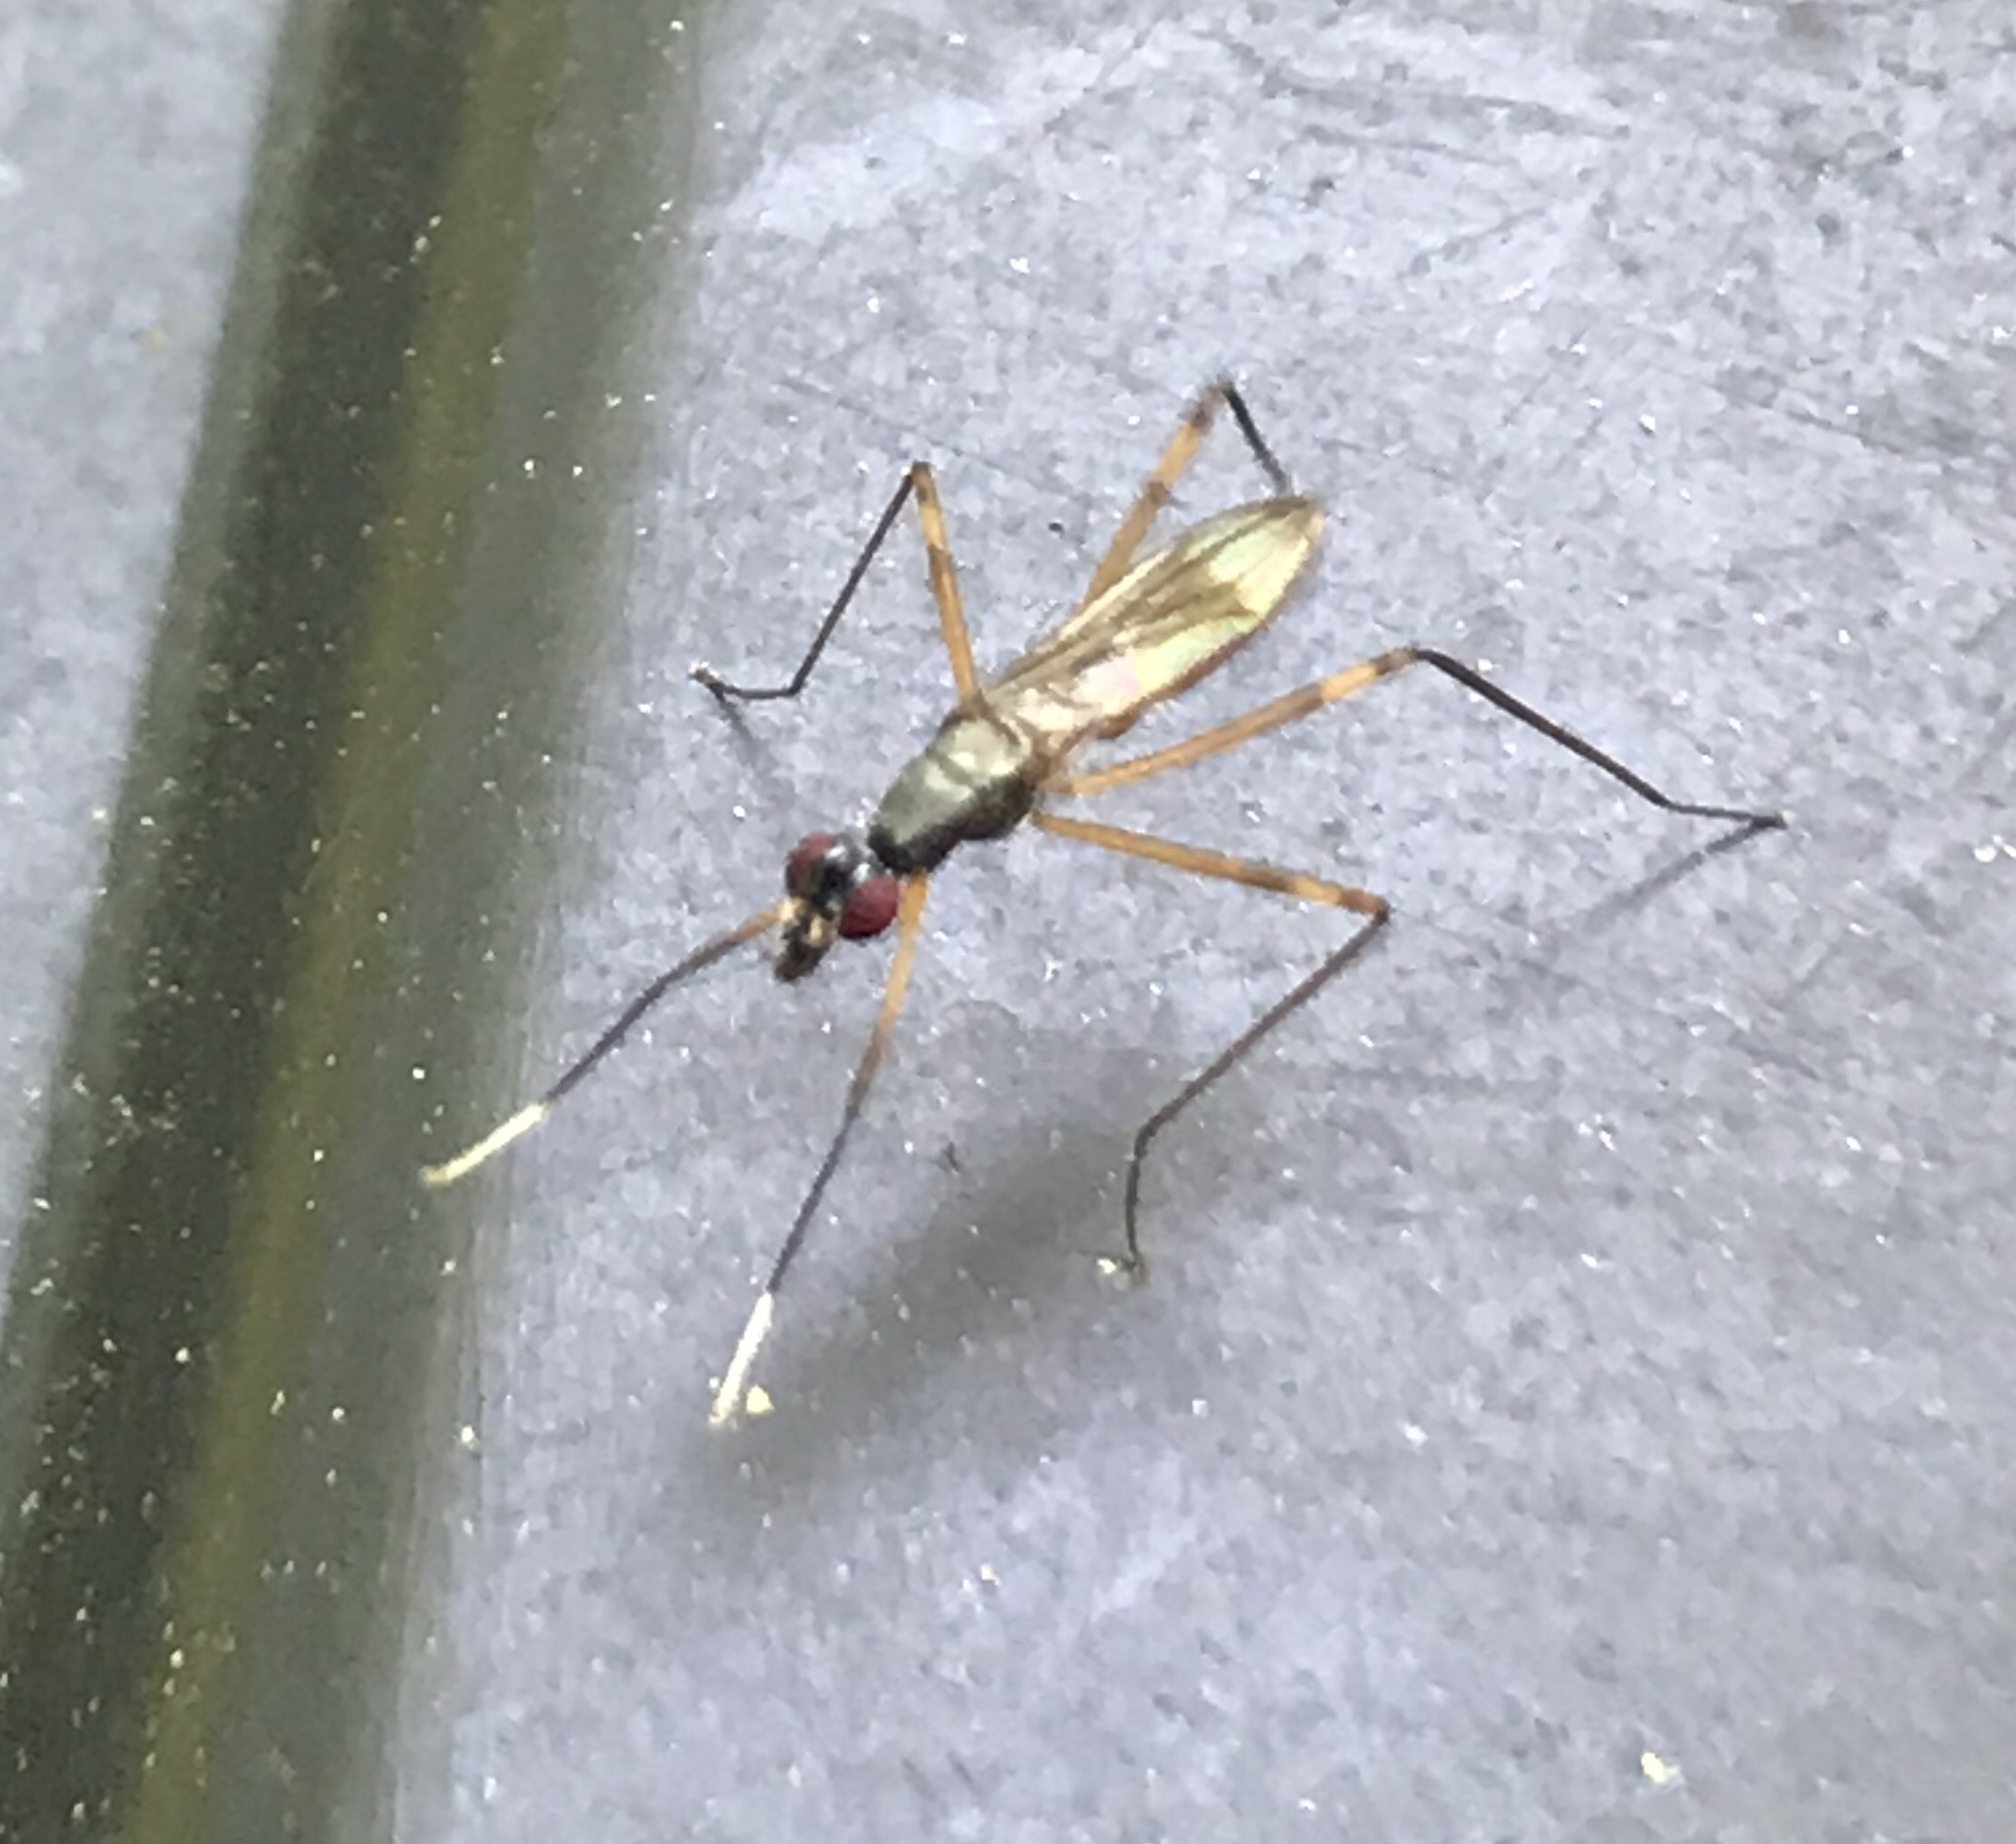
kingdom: Animalia
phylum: Arthropoda
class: Insecta
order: Diptera
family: Micropezidae
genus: Rainieria
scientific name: Rainieria antennaepes
